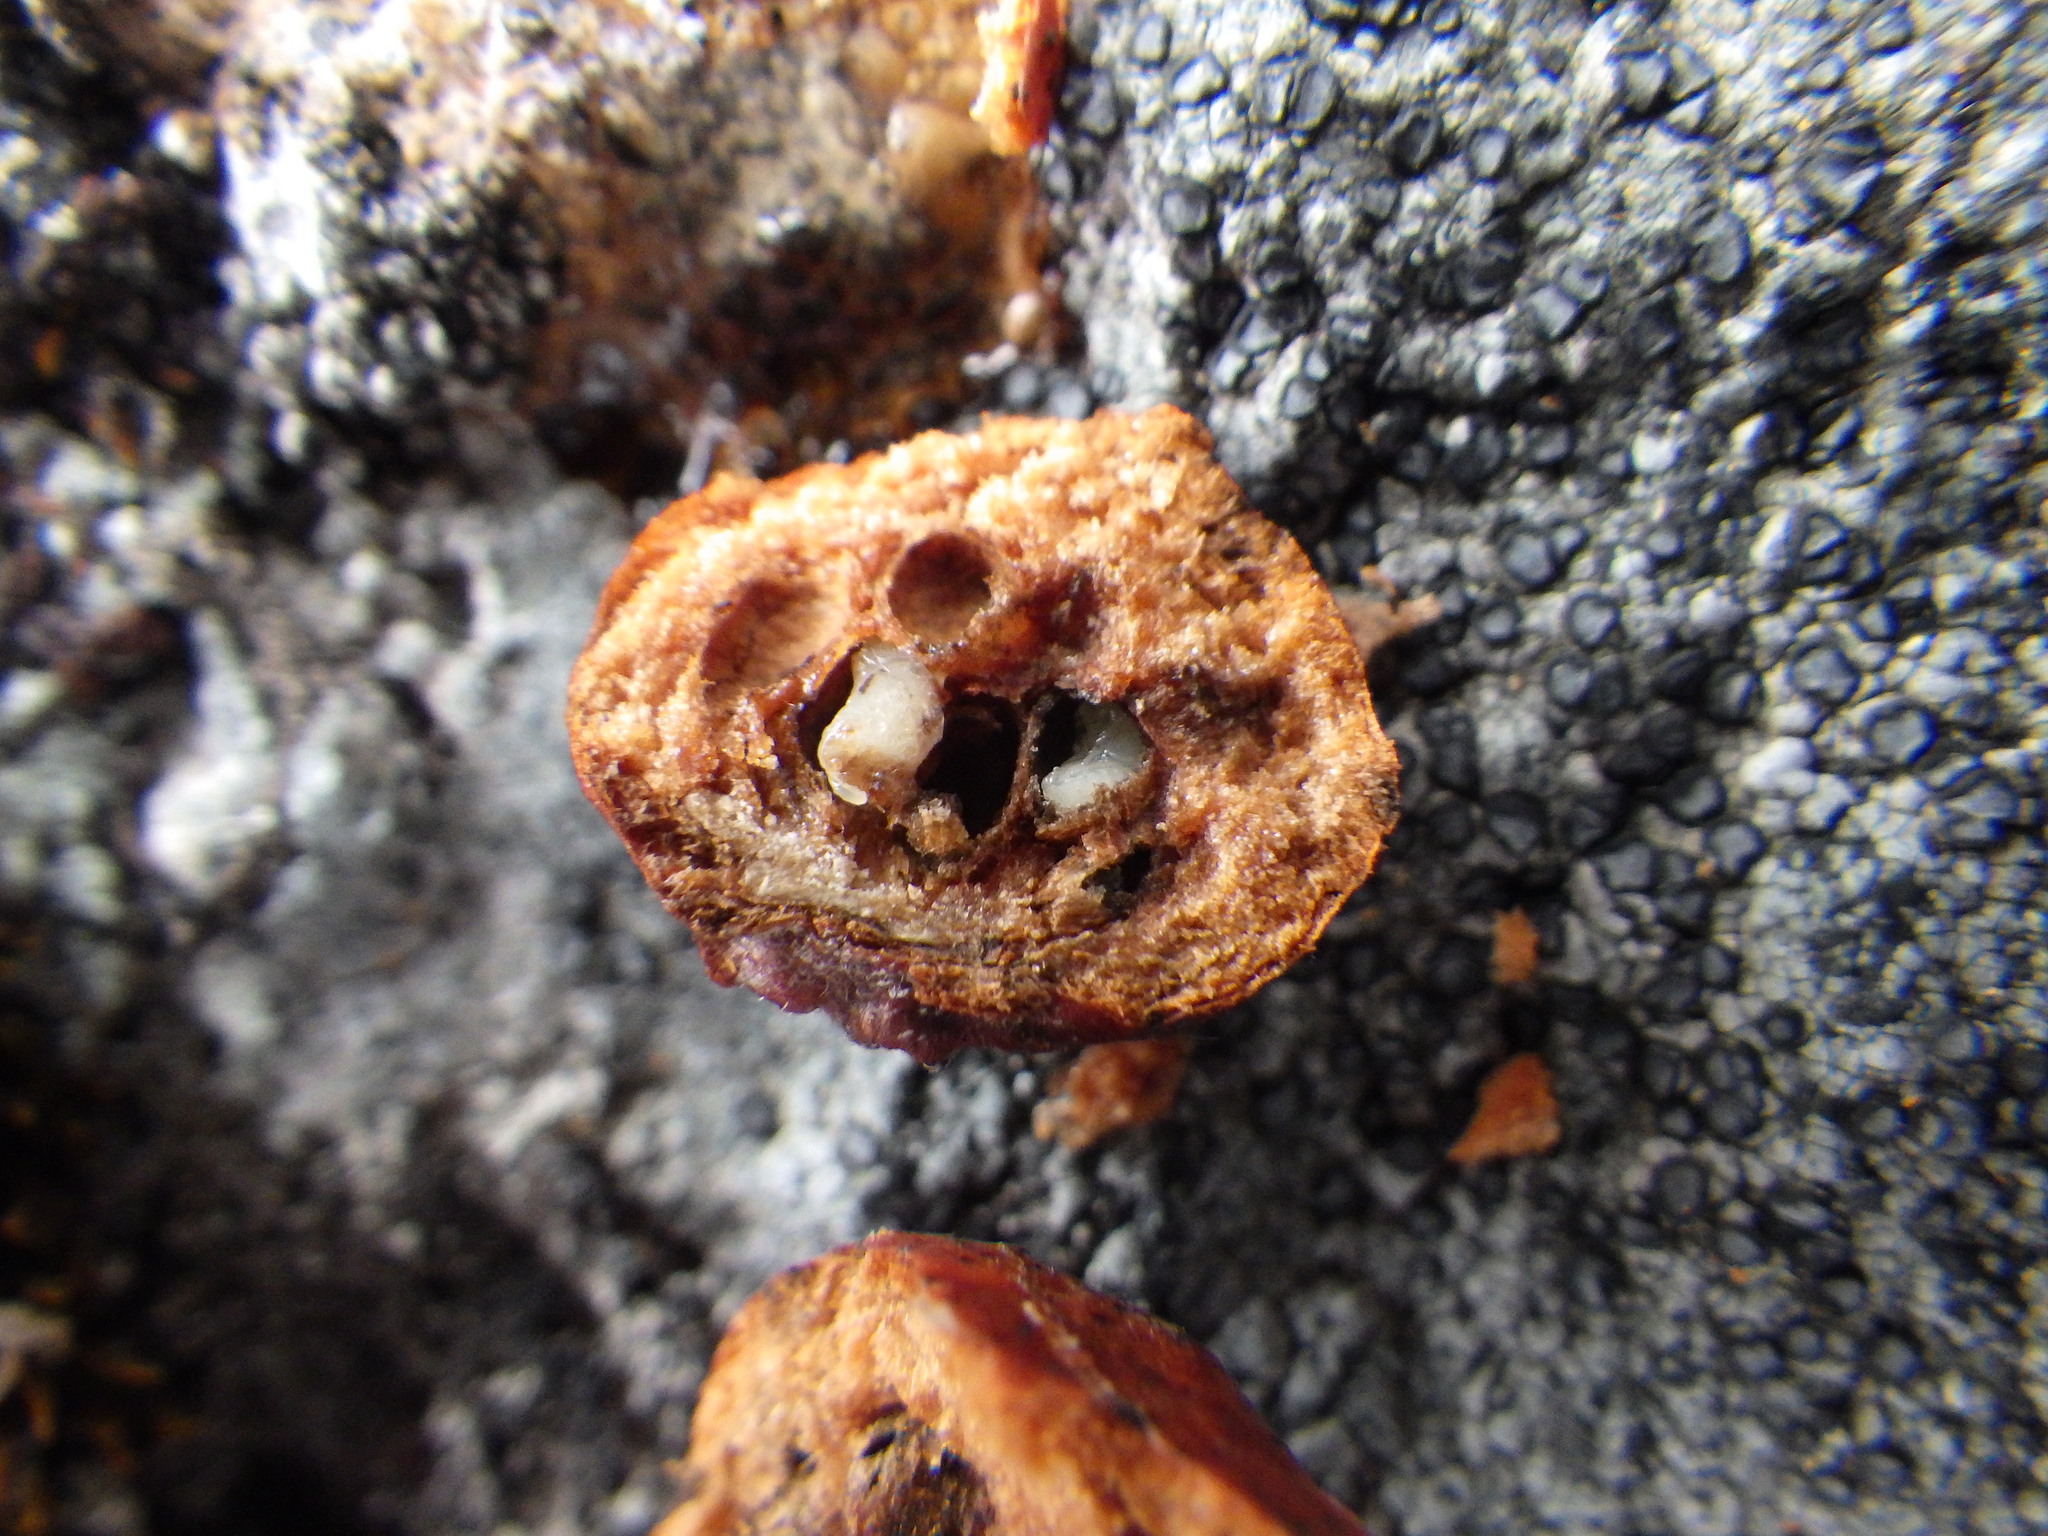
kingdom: Animalia
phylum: Arthropoda
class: Insecta
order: Hymenoptera
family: Pteromalidae
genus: Hemadas
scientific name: Hemadas nubilipennis
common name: Blueberry stem gall wasp
